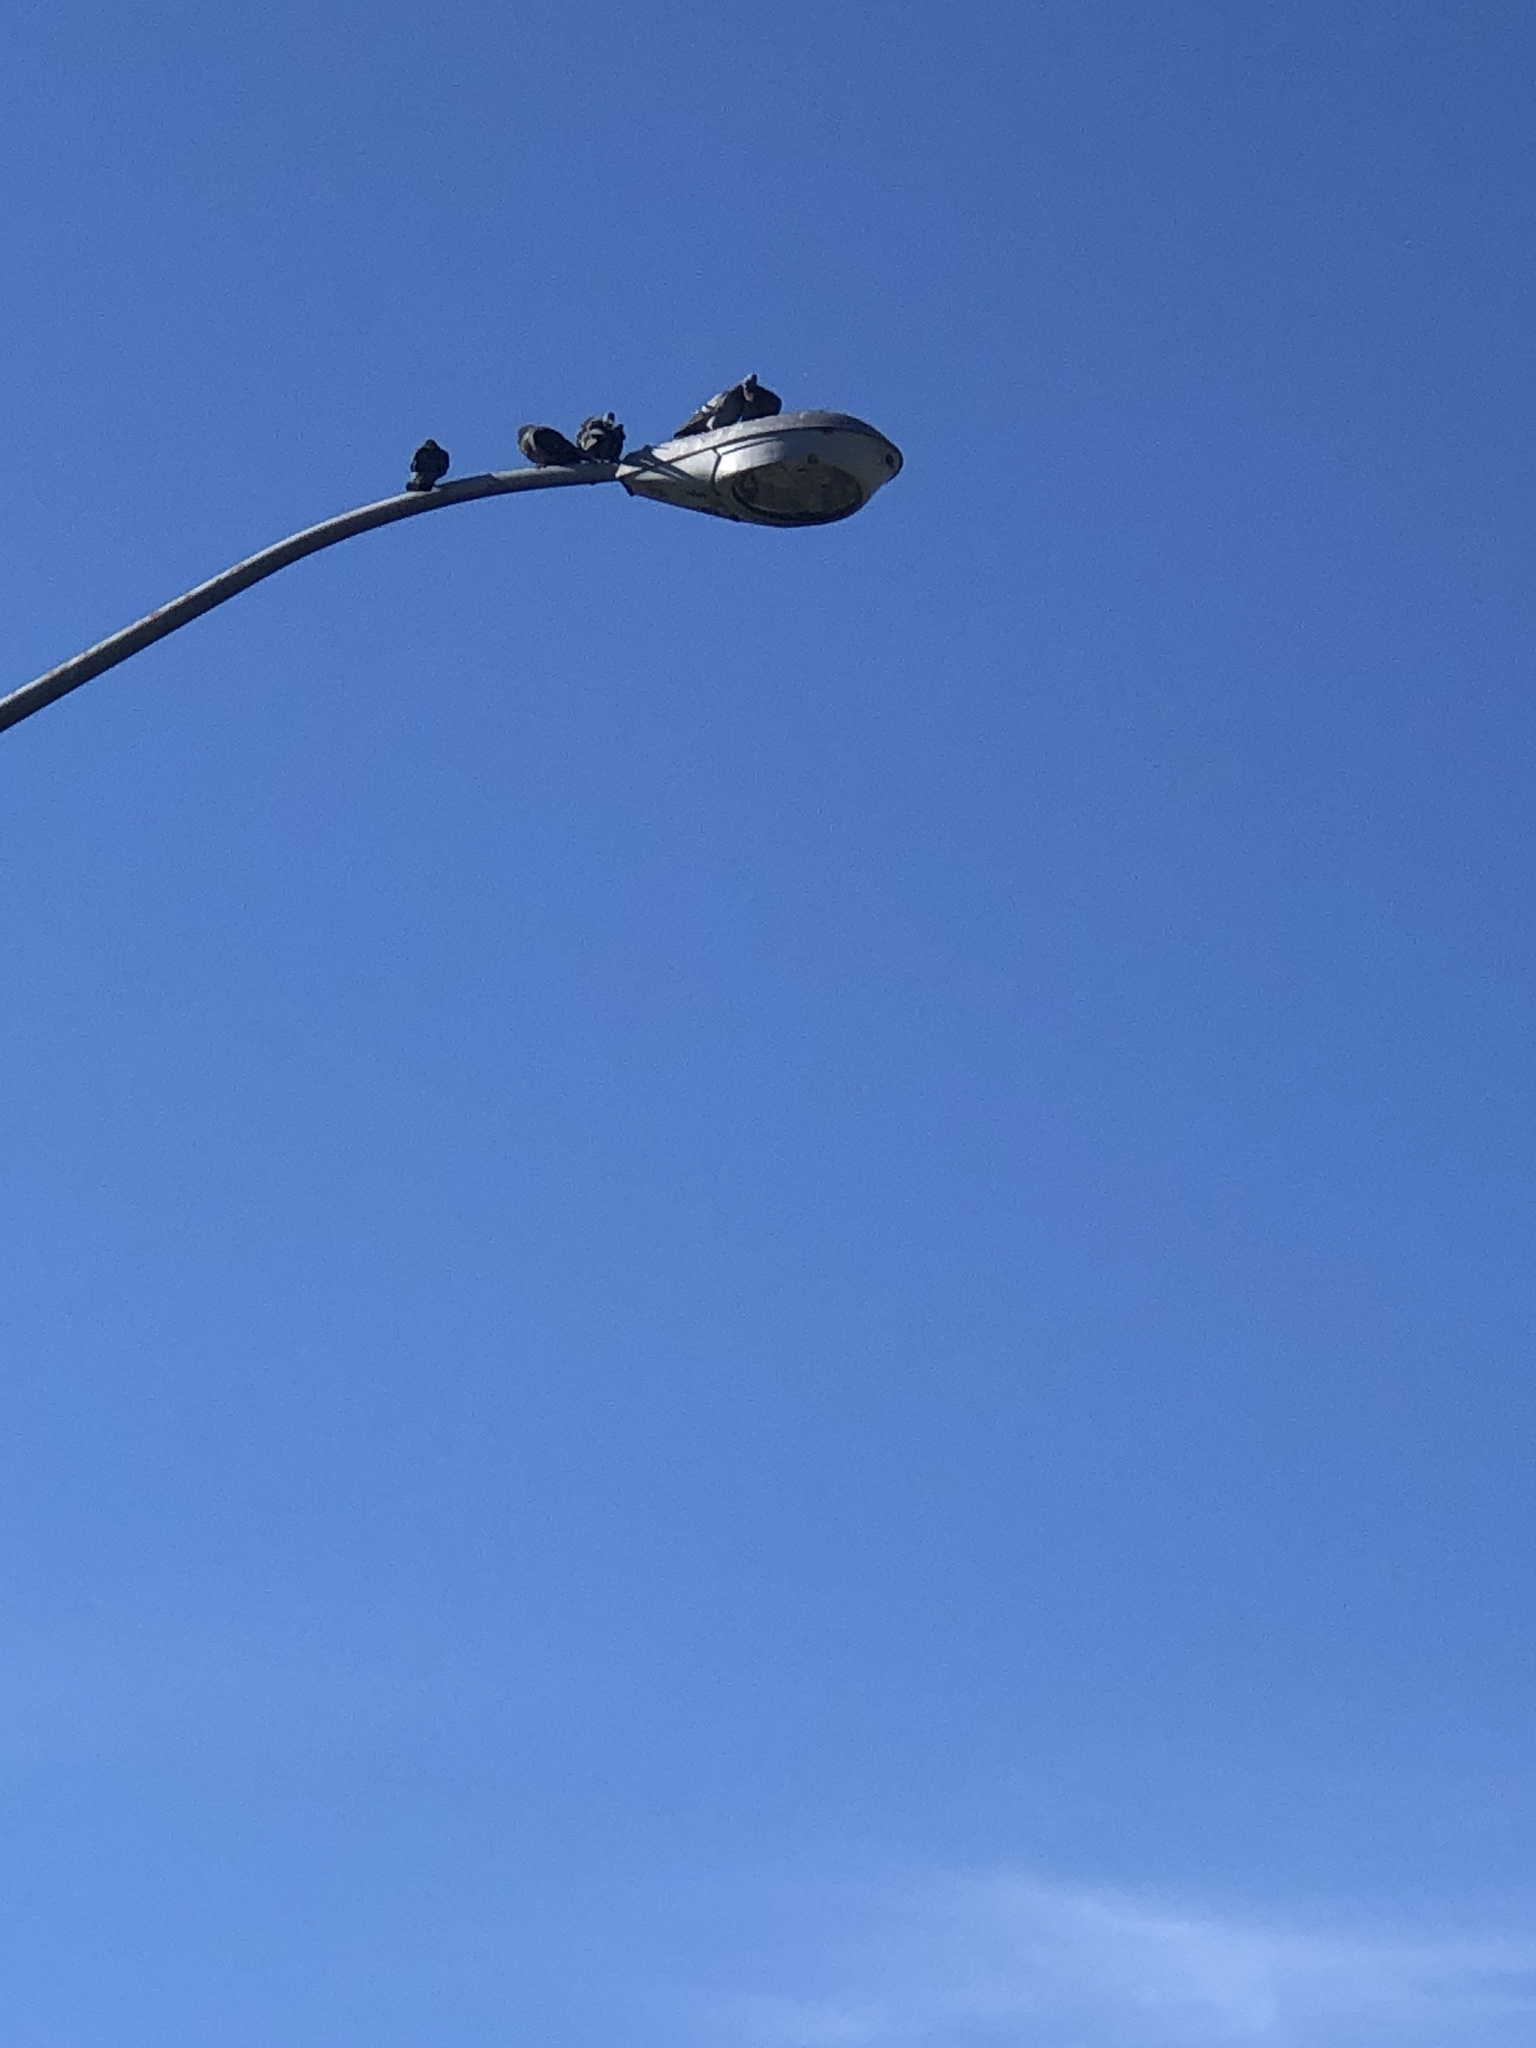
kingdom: Animalia
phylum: Chordata
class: Aves
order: Columbiformes
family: Columbidae
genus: Columba
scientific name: Columba livia
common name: Rock pigeon
